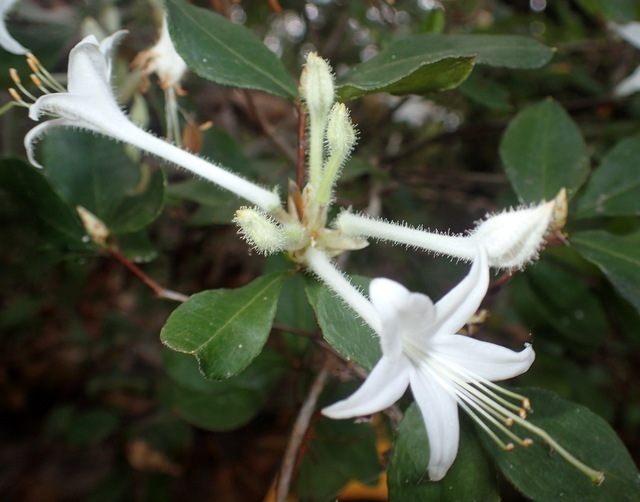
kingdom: Plantae
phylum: Tracheophyta
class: Magnoliopsida
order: Ericales
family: Ericaceae
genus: Rhododendron
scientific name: Rhododendron serrulatum
